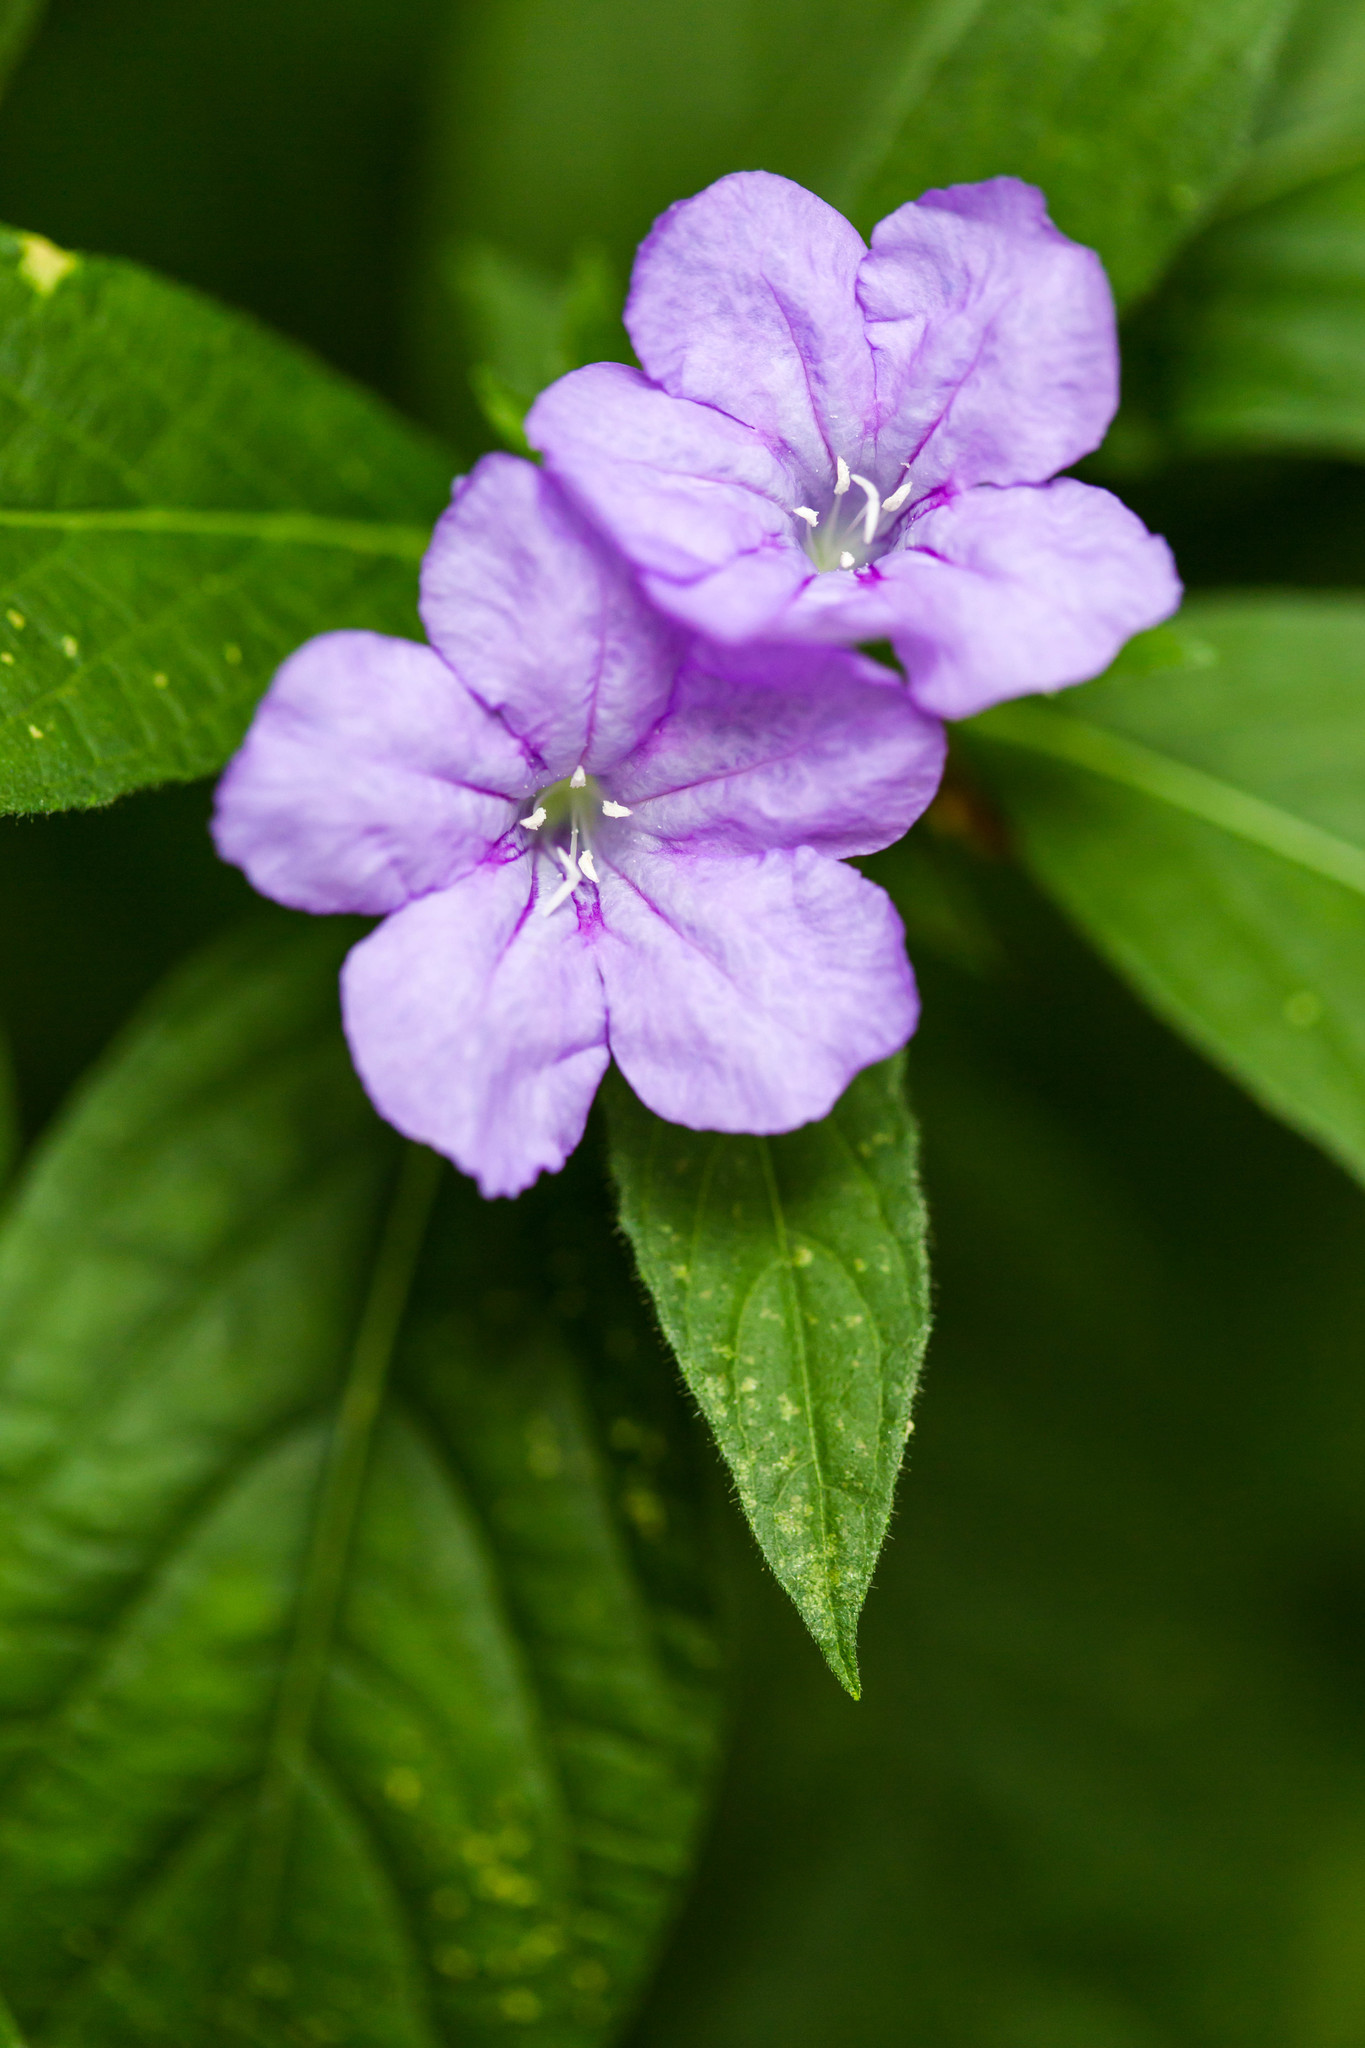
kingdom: Plantae
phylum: Tracheophyta
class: Magnoliopsida
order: Lamiales
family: Acanthaceae
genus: Ruellia
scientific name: Ruellia caroliniensis
